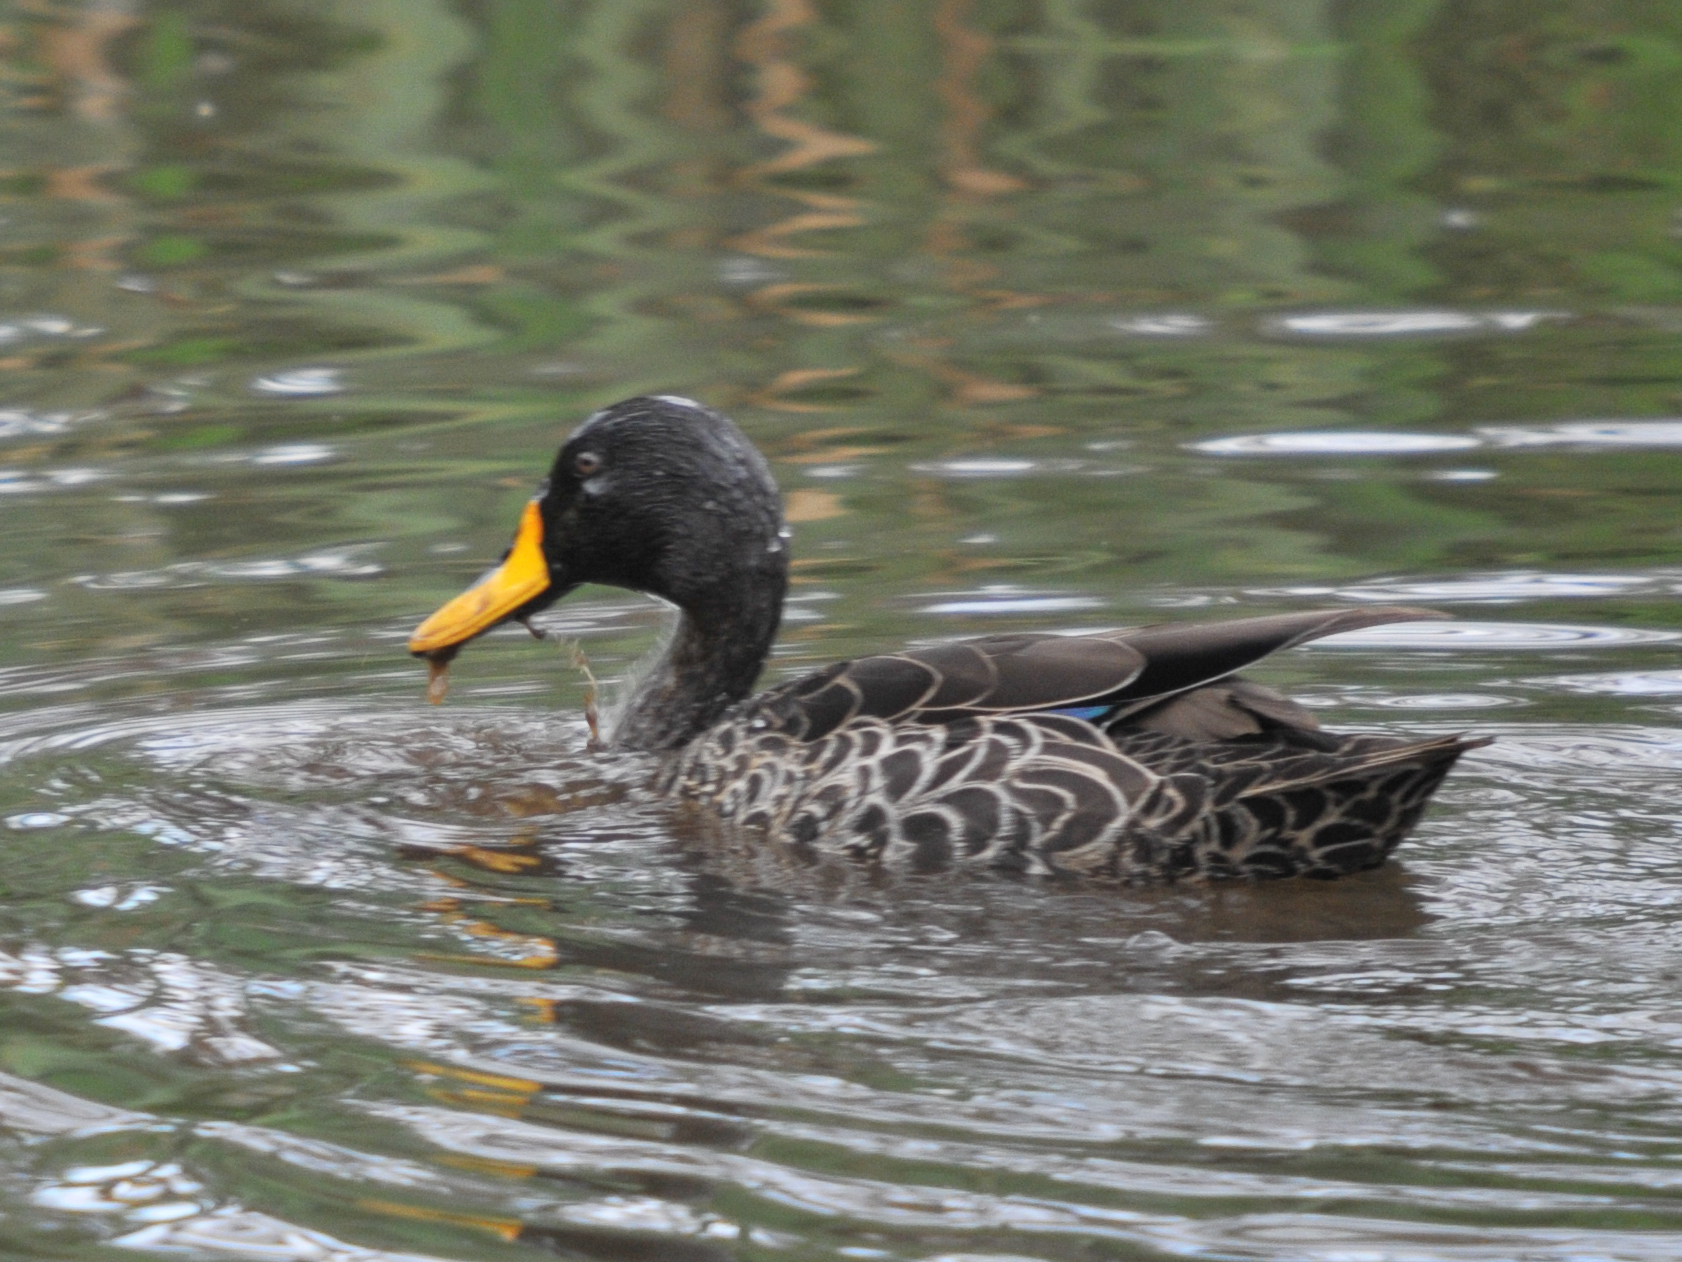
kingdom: Animalia
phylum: Chordata
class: Aves
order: Anseriformes
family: Anatidae
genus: Anas
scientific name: Anas undulata
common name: Yellow-billed duck
